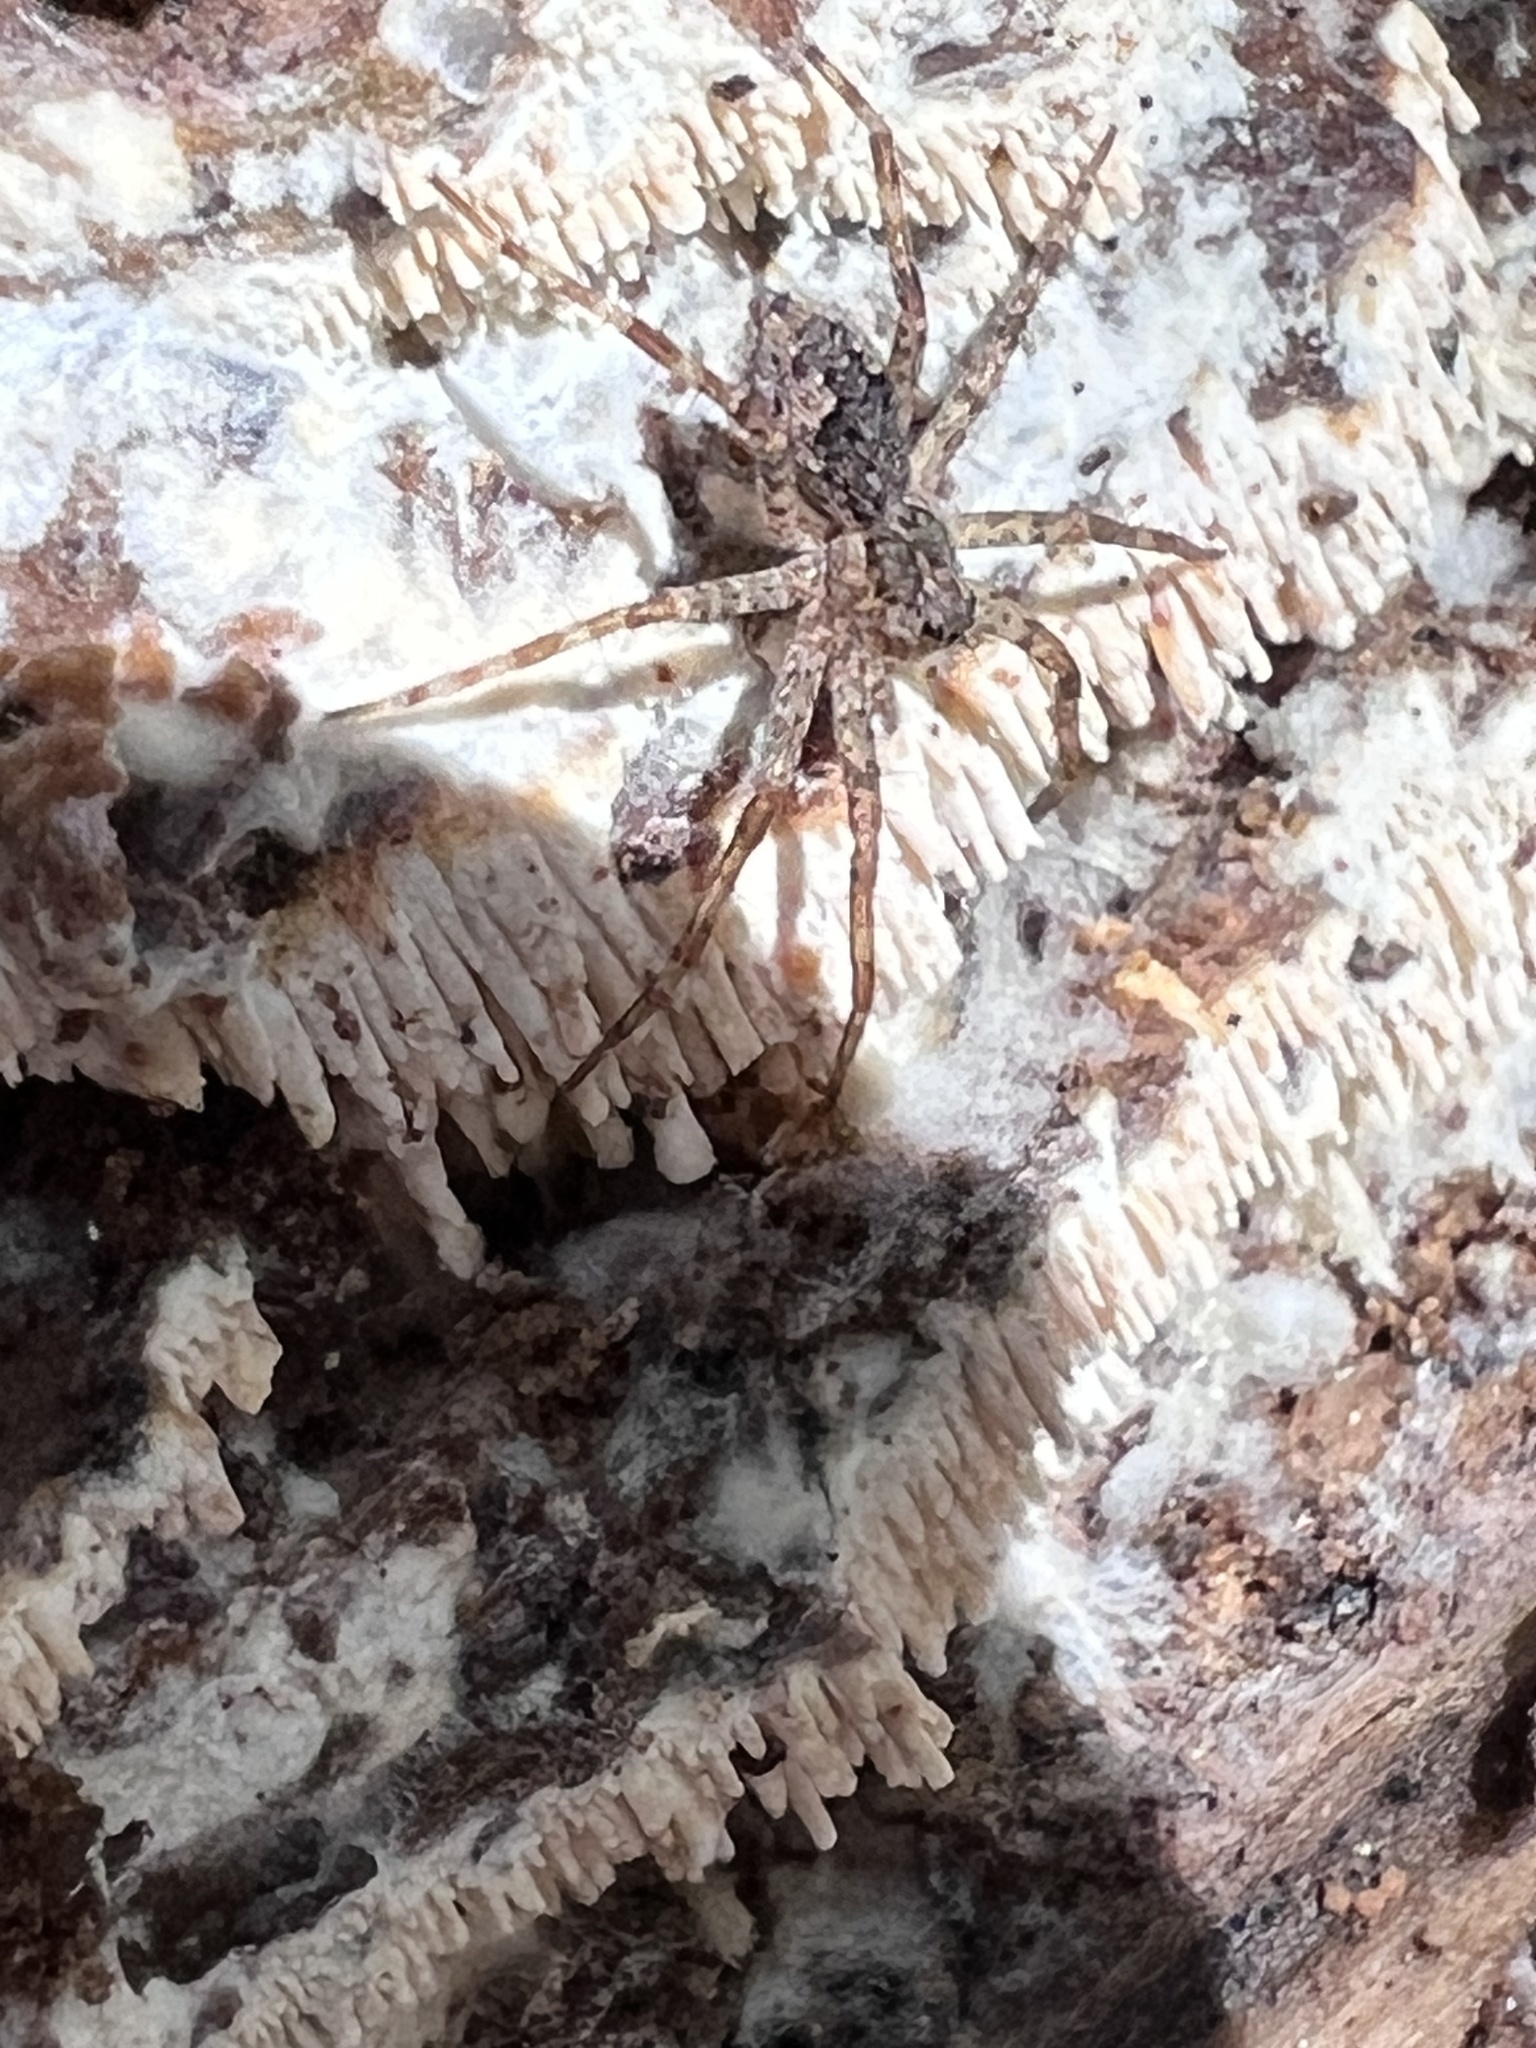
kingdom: Animalia
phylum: Arthropoda
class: Arachnida
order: Araneae
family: Pisauridae
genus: Dolomedes
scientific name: Dolomedes tenebrosus
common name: Dark fishing spider
